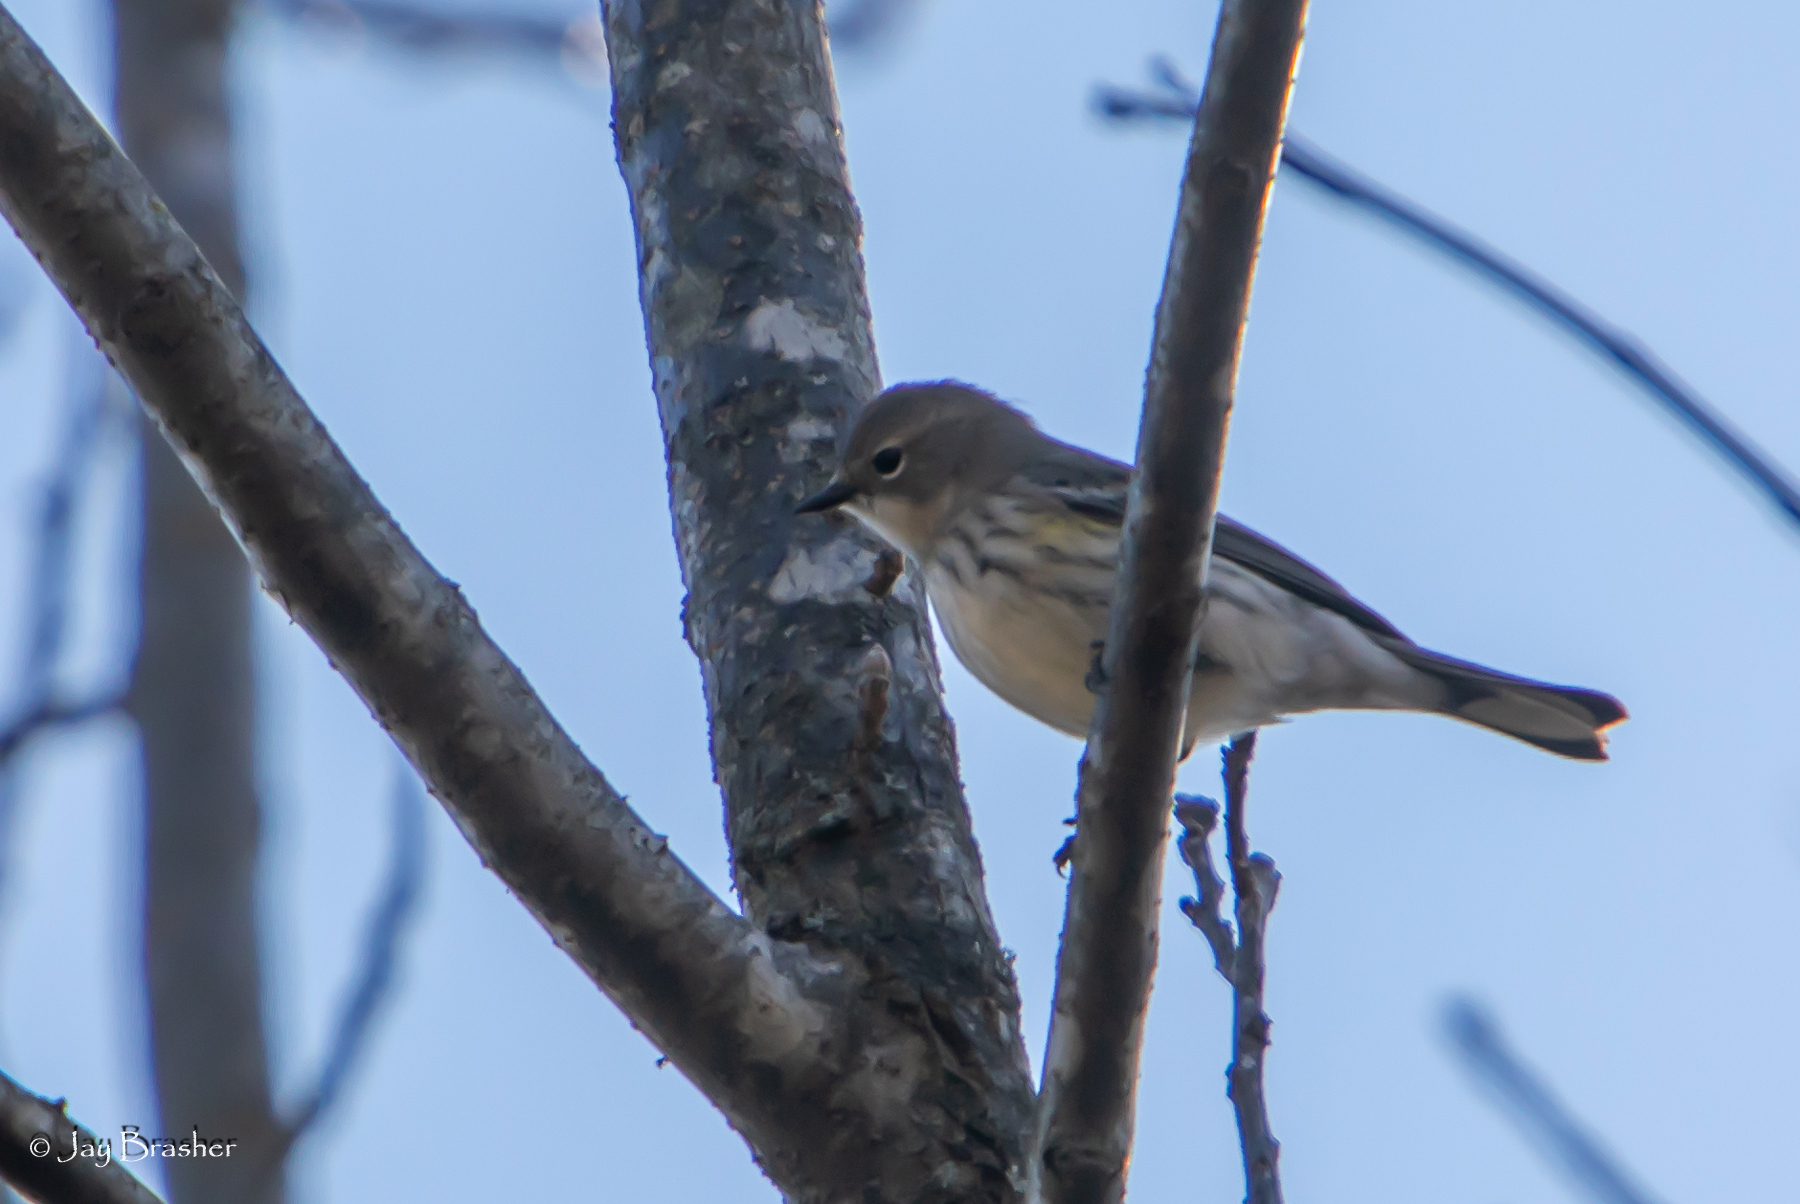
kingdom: Animalia
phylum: Chordata
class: Aves
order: Passeriformes
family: Parulidae
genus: Setophaga
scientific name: Setophaga coronata
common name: Myrtle warbler
